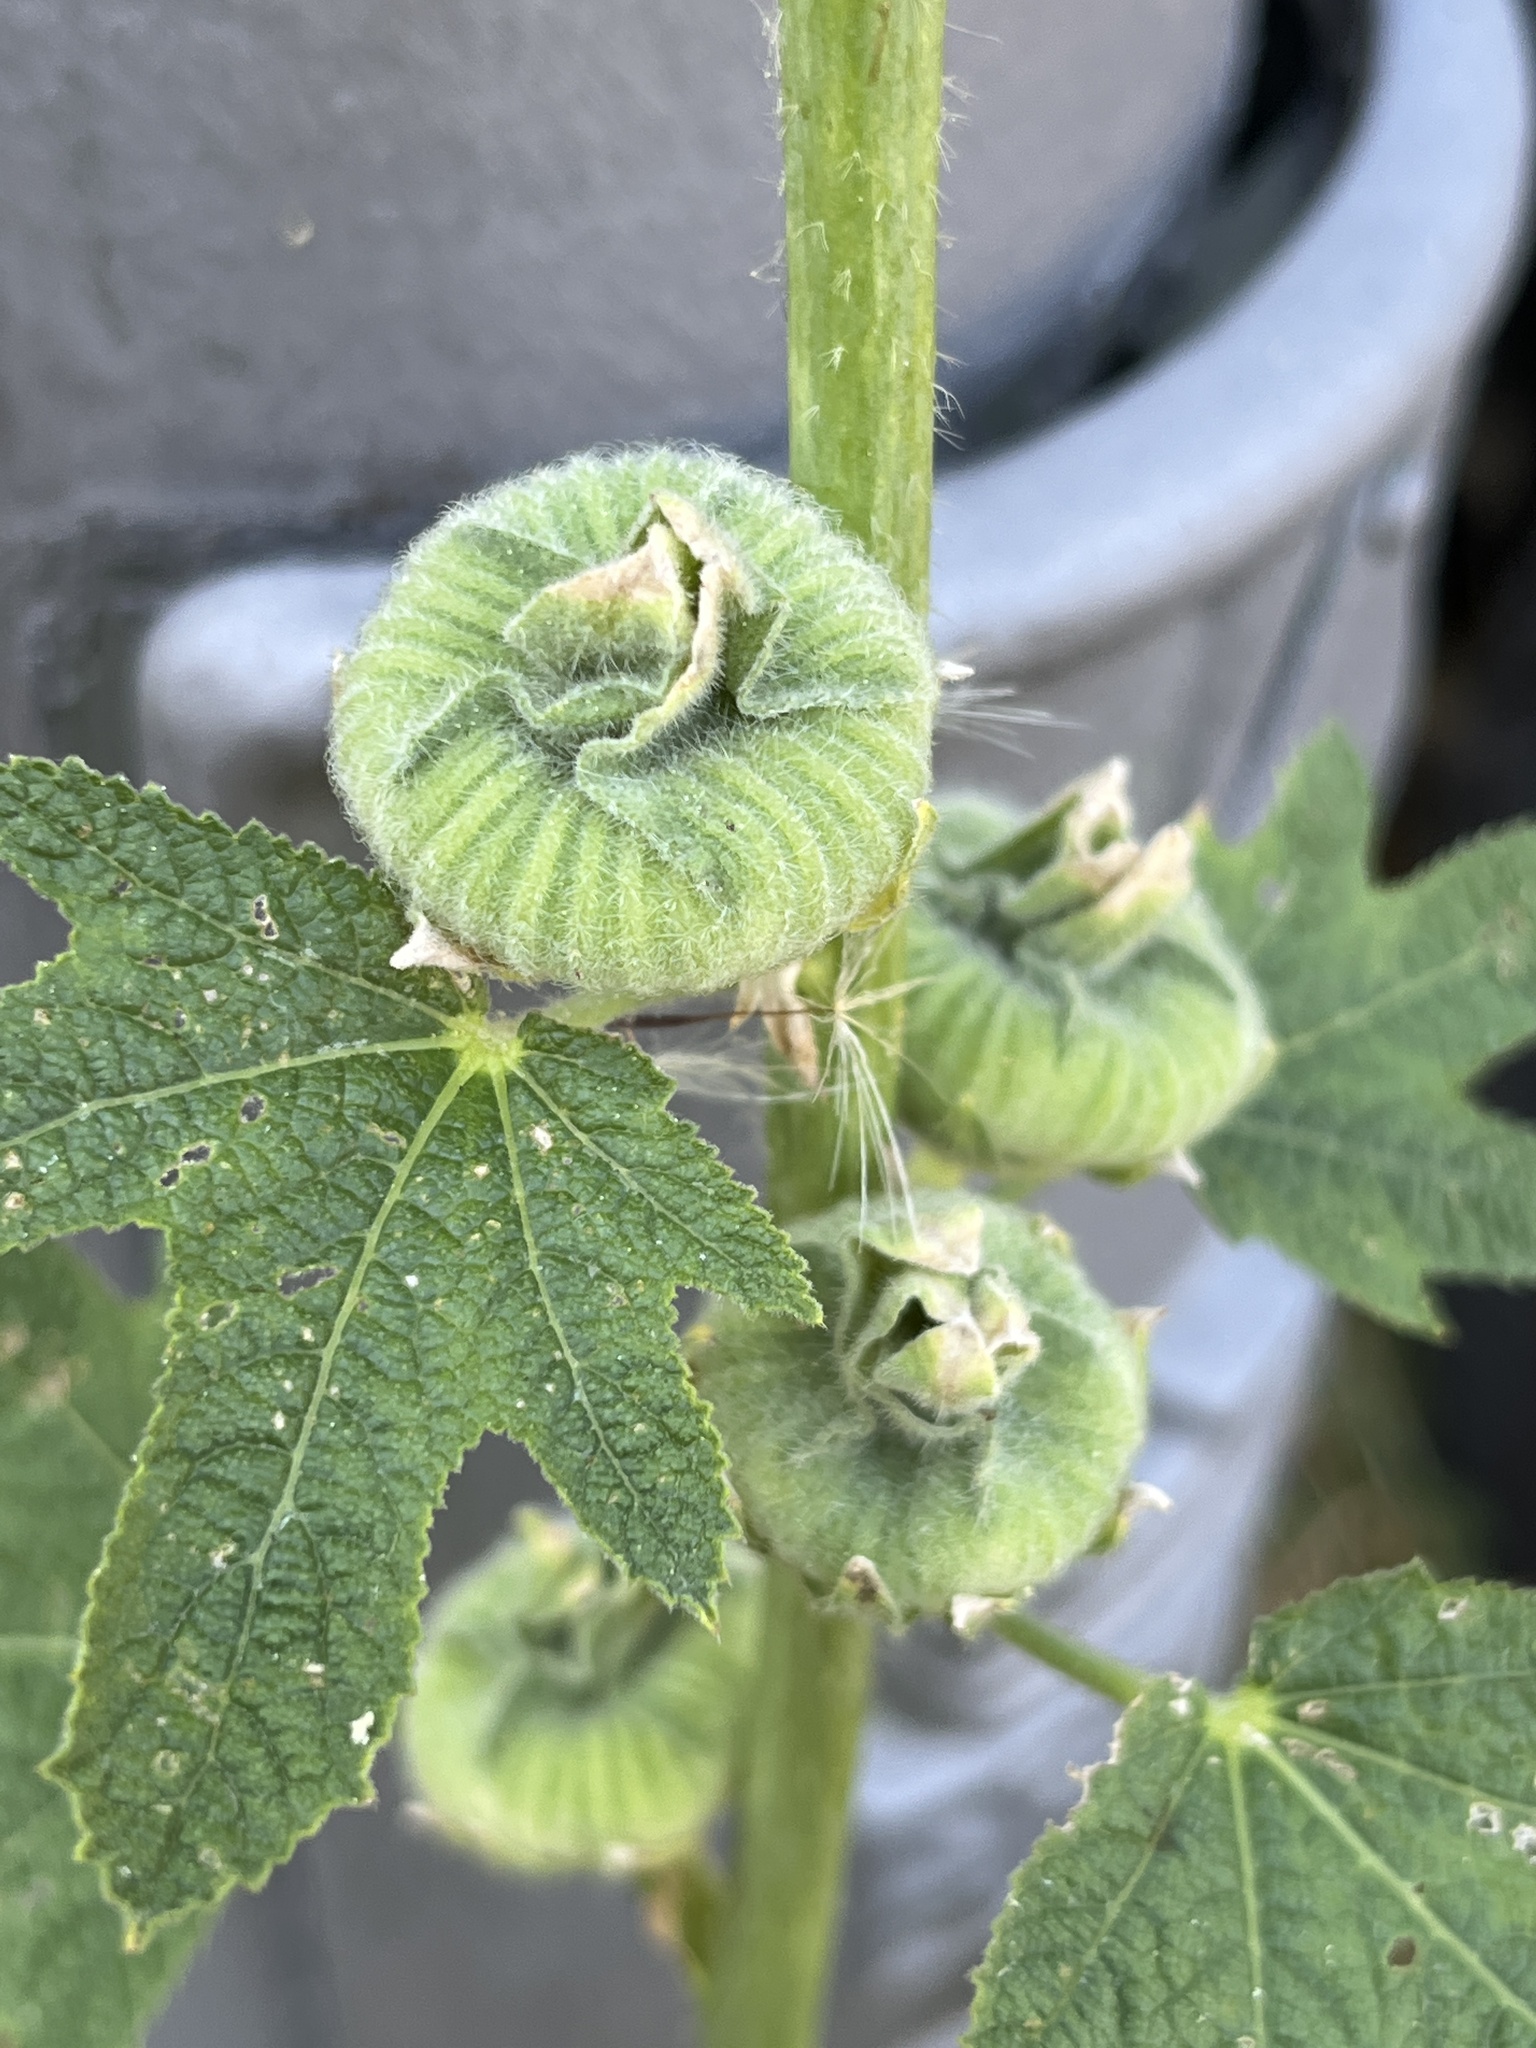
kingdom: Plantae
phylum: Tracheophyta
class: Magnoliopsida
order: Malvales
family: Malvaceae
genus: Alcea
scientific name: Alcea rosea
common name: Hollyhock
